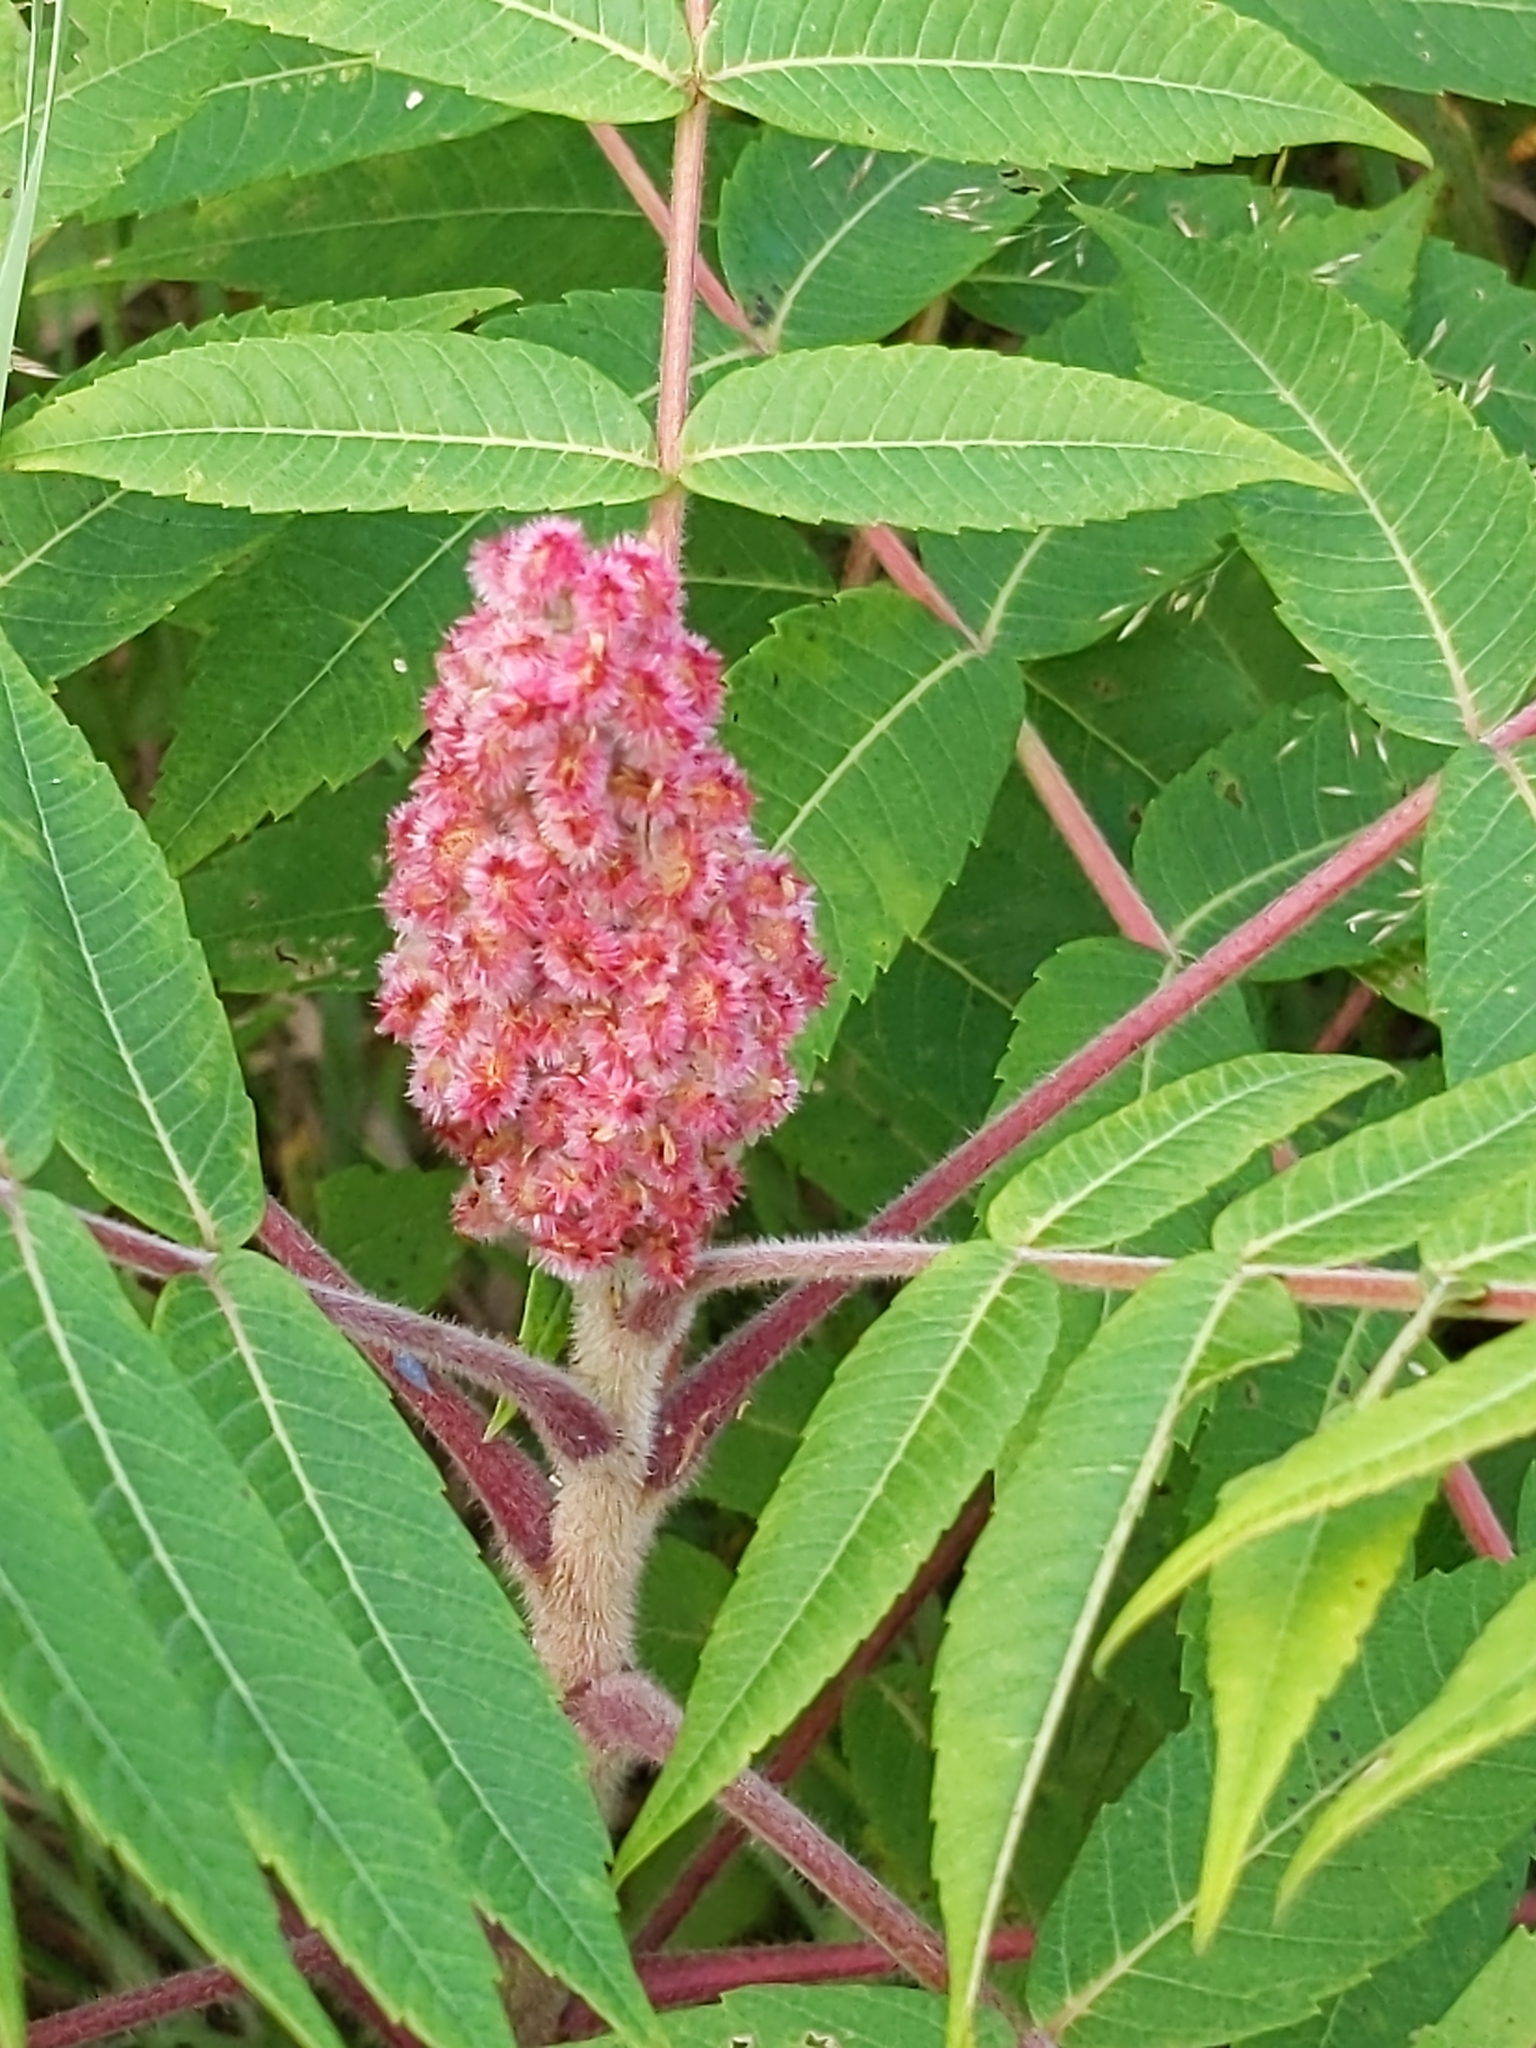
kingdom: Plantae
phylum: Tracheophyta
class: Magnoliopsida
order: Sapindales
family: Anacardiaceae
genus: Rhus
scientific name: Rhus typhina
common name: Staghorn sumac
